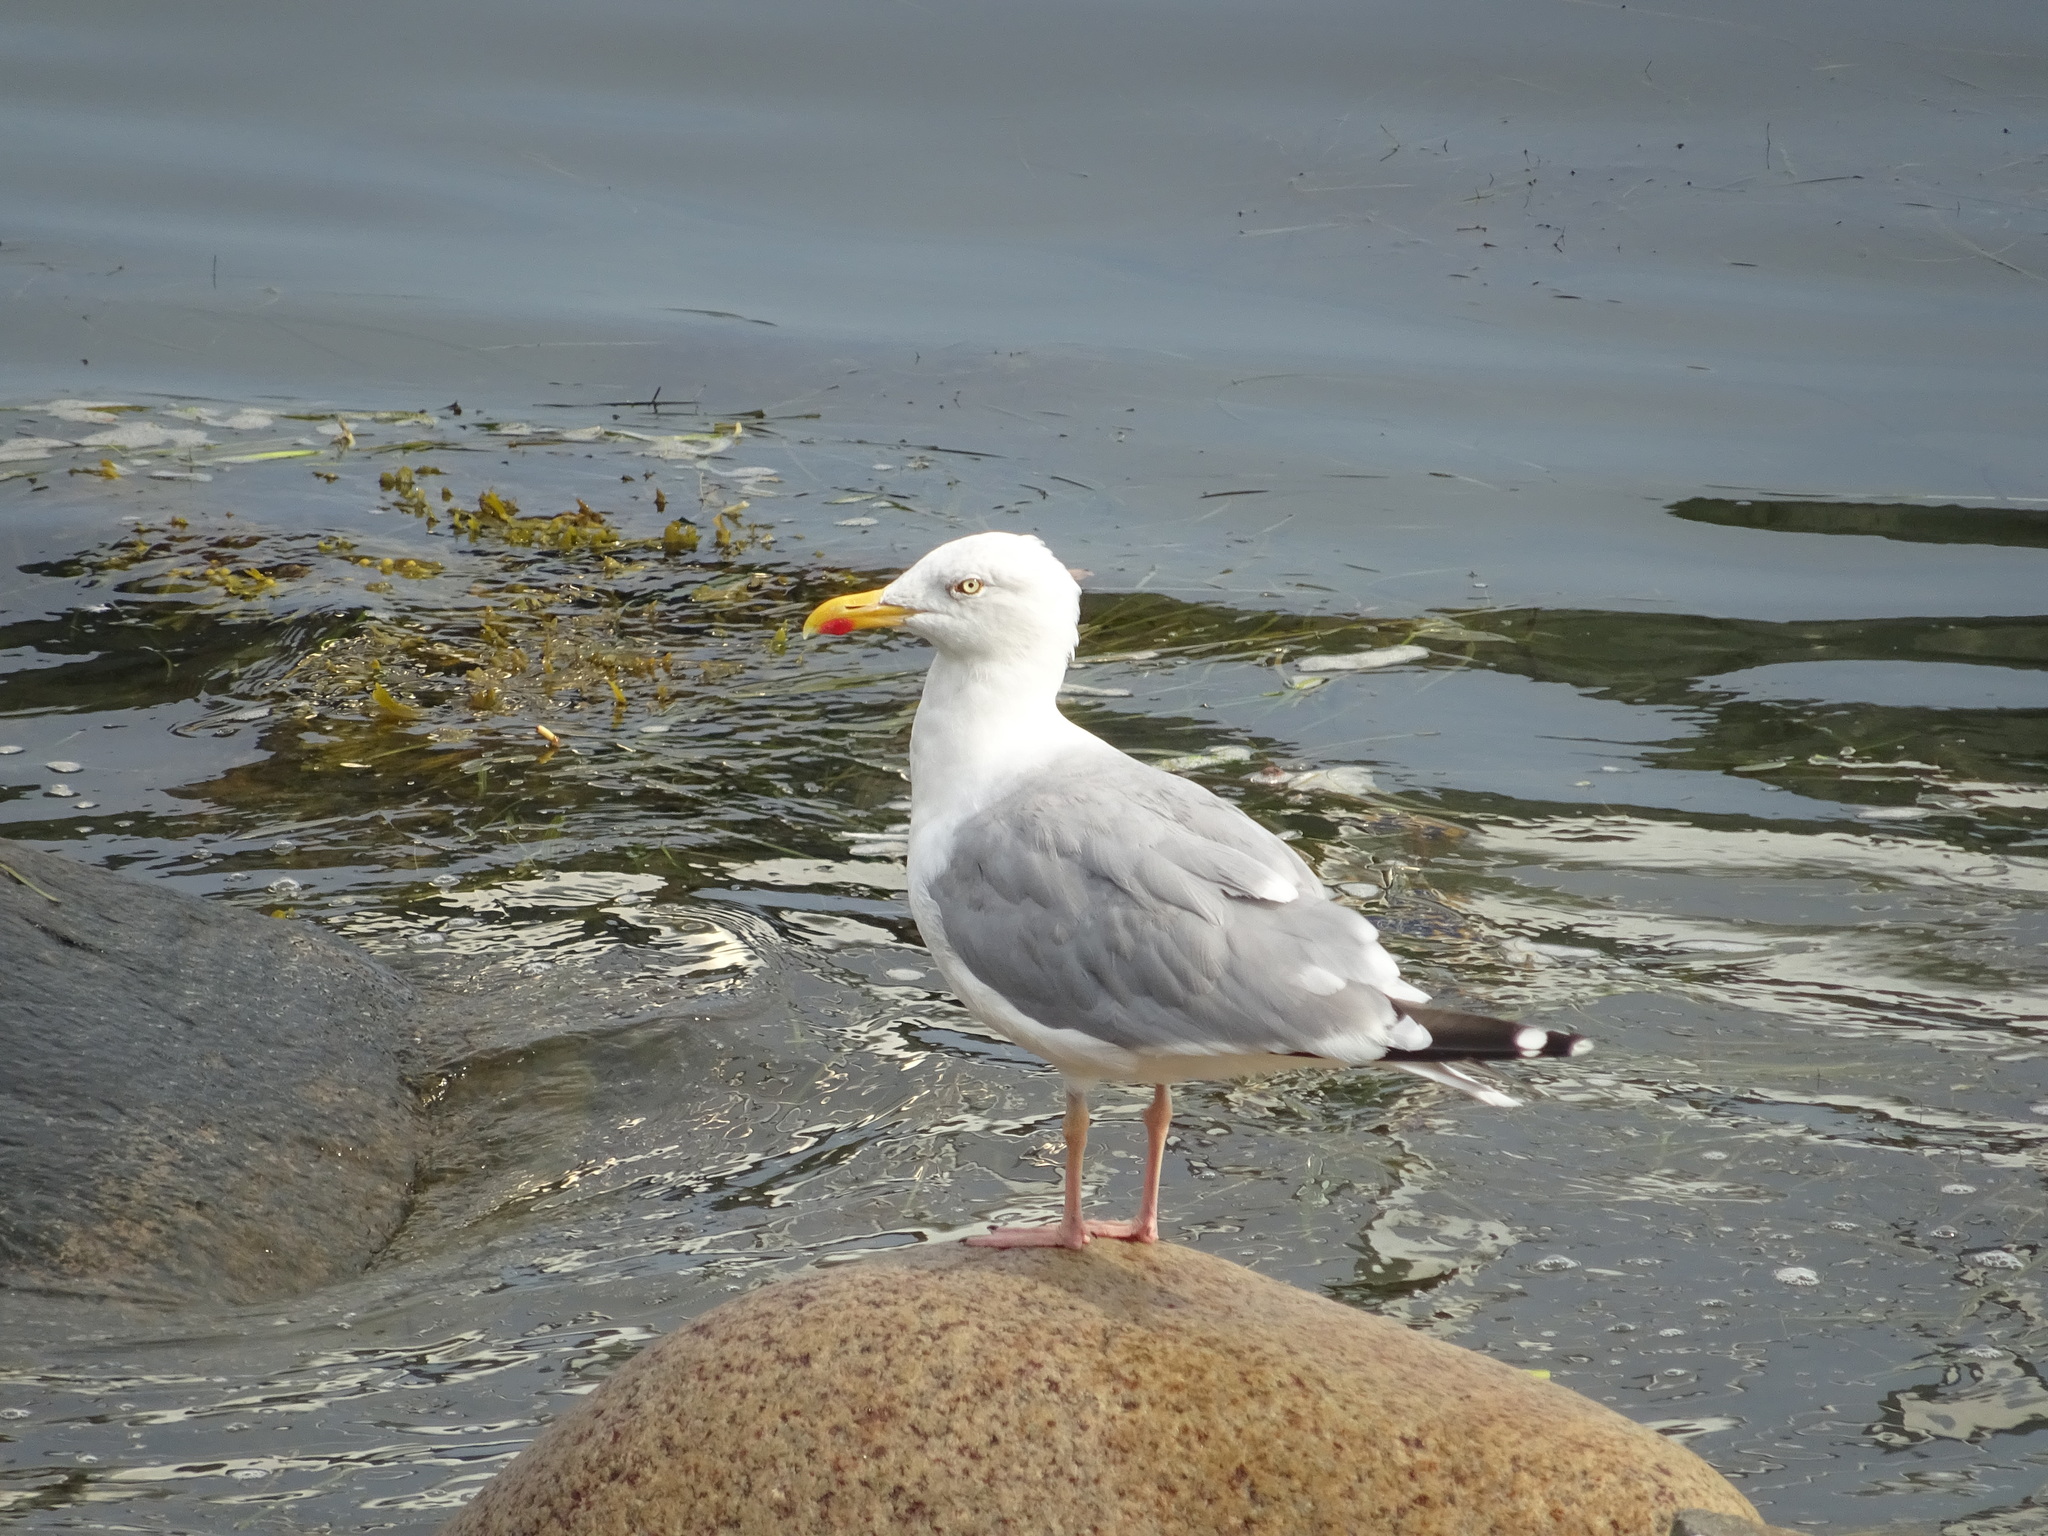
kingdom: Animalia
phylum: Chordata
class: Aves
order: Charadriiformes
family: Laridae
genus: Larus
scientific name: Larus argentatus
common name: Herring gull
